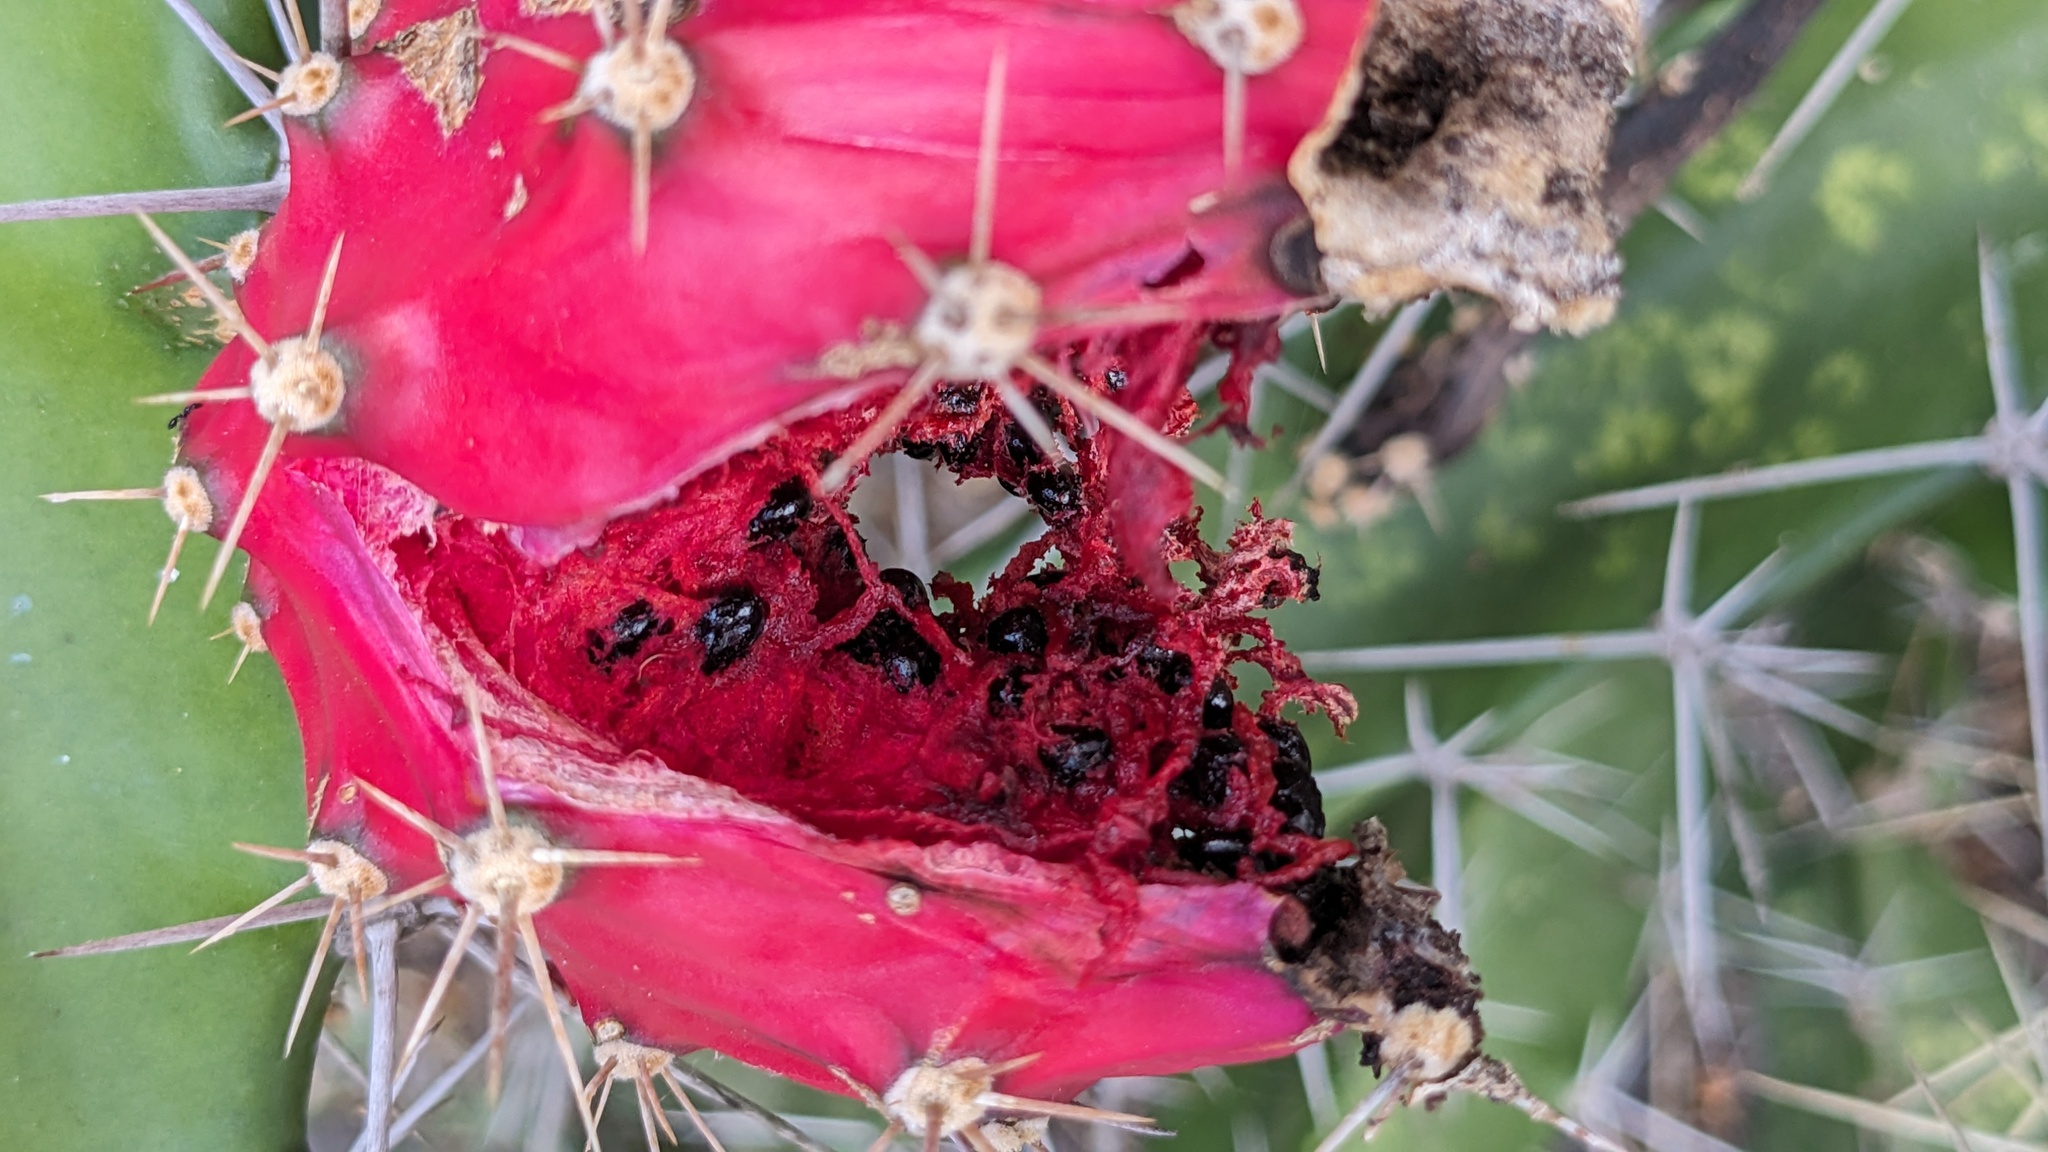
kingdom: Plantae
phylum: Tracheophyta
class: Magnoliopsida
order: Caryophyllales
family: Cactaceae
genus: Acanthocereus
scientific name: Acanthocereus tetragonus
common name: Triangle cactus
